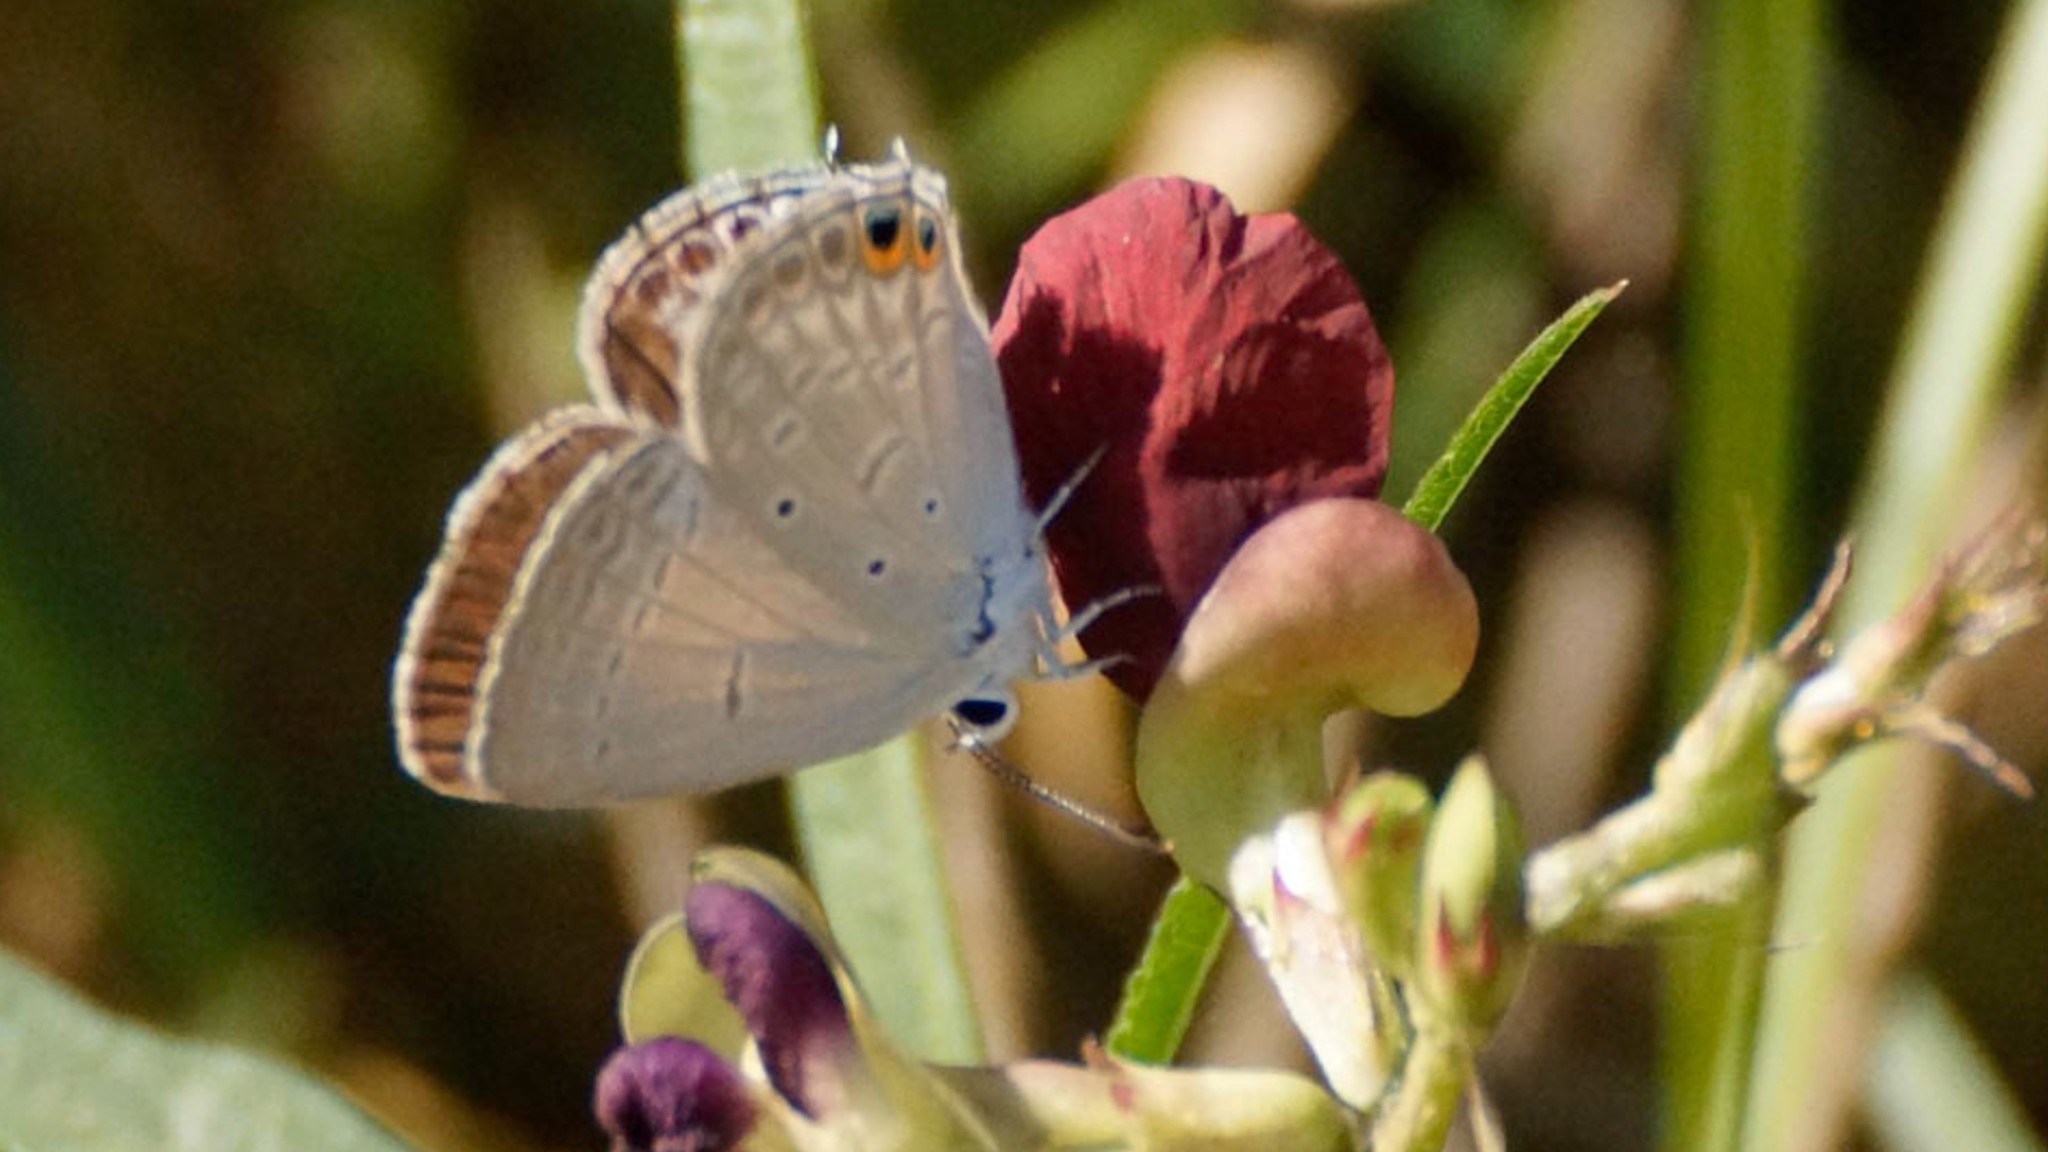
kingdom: Animalia
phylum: Arthropoda
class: Insecta
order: Lepidoptera
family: Lycaenidae
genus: Euchrysops
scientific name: Euchrysops cnejus
